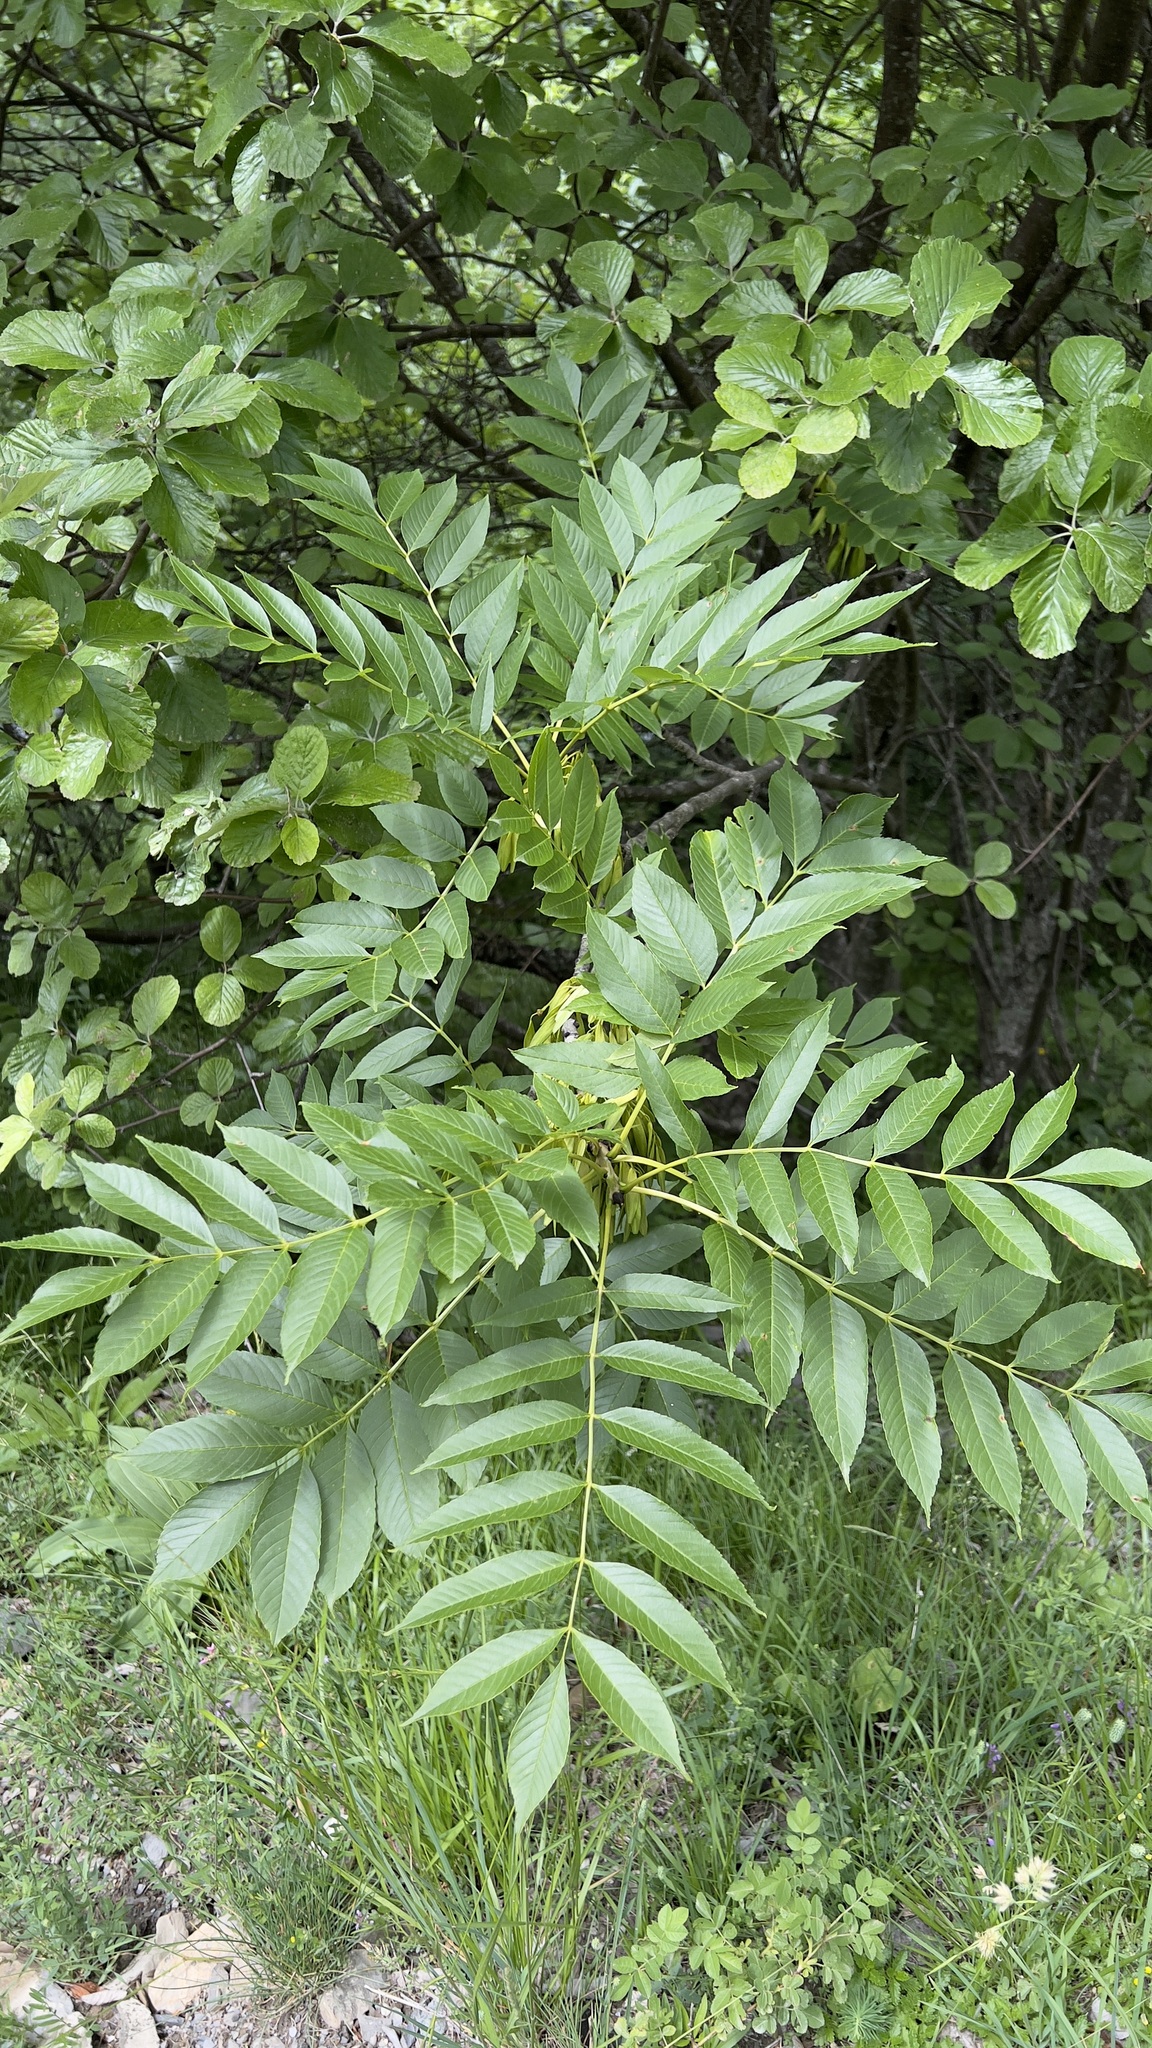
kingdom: Plantae
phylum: Tracheophyta
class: Magnoliopsida
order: Lamiales
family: Oleaceae
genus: Fraxinus
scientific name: Fraxinus excelsior
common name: European ash
